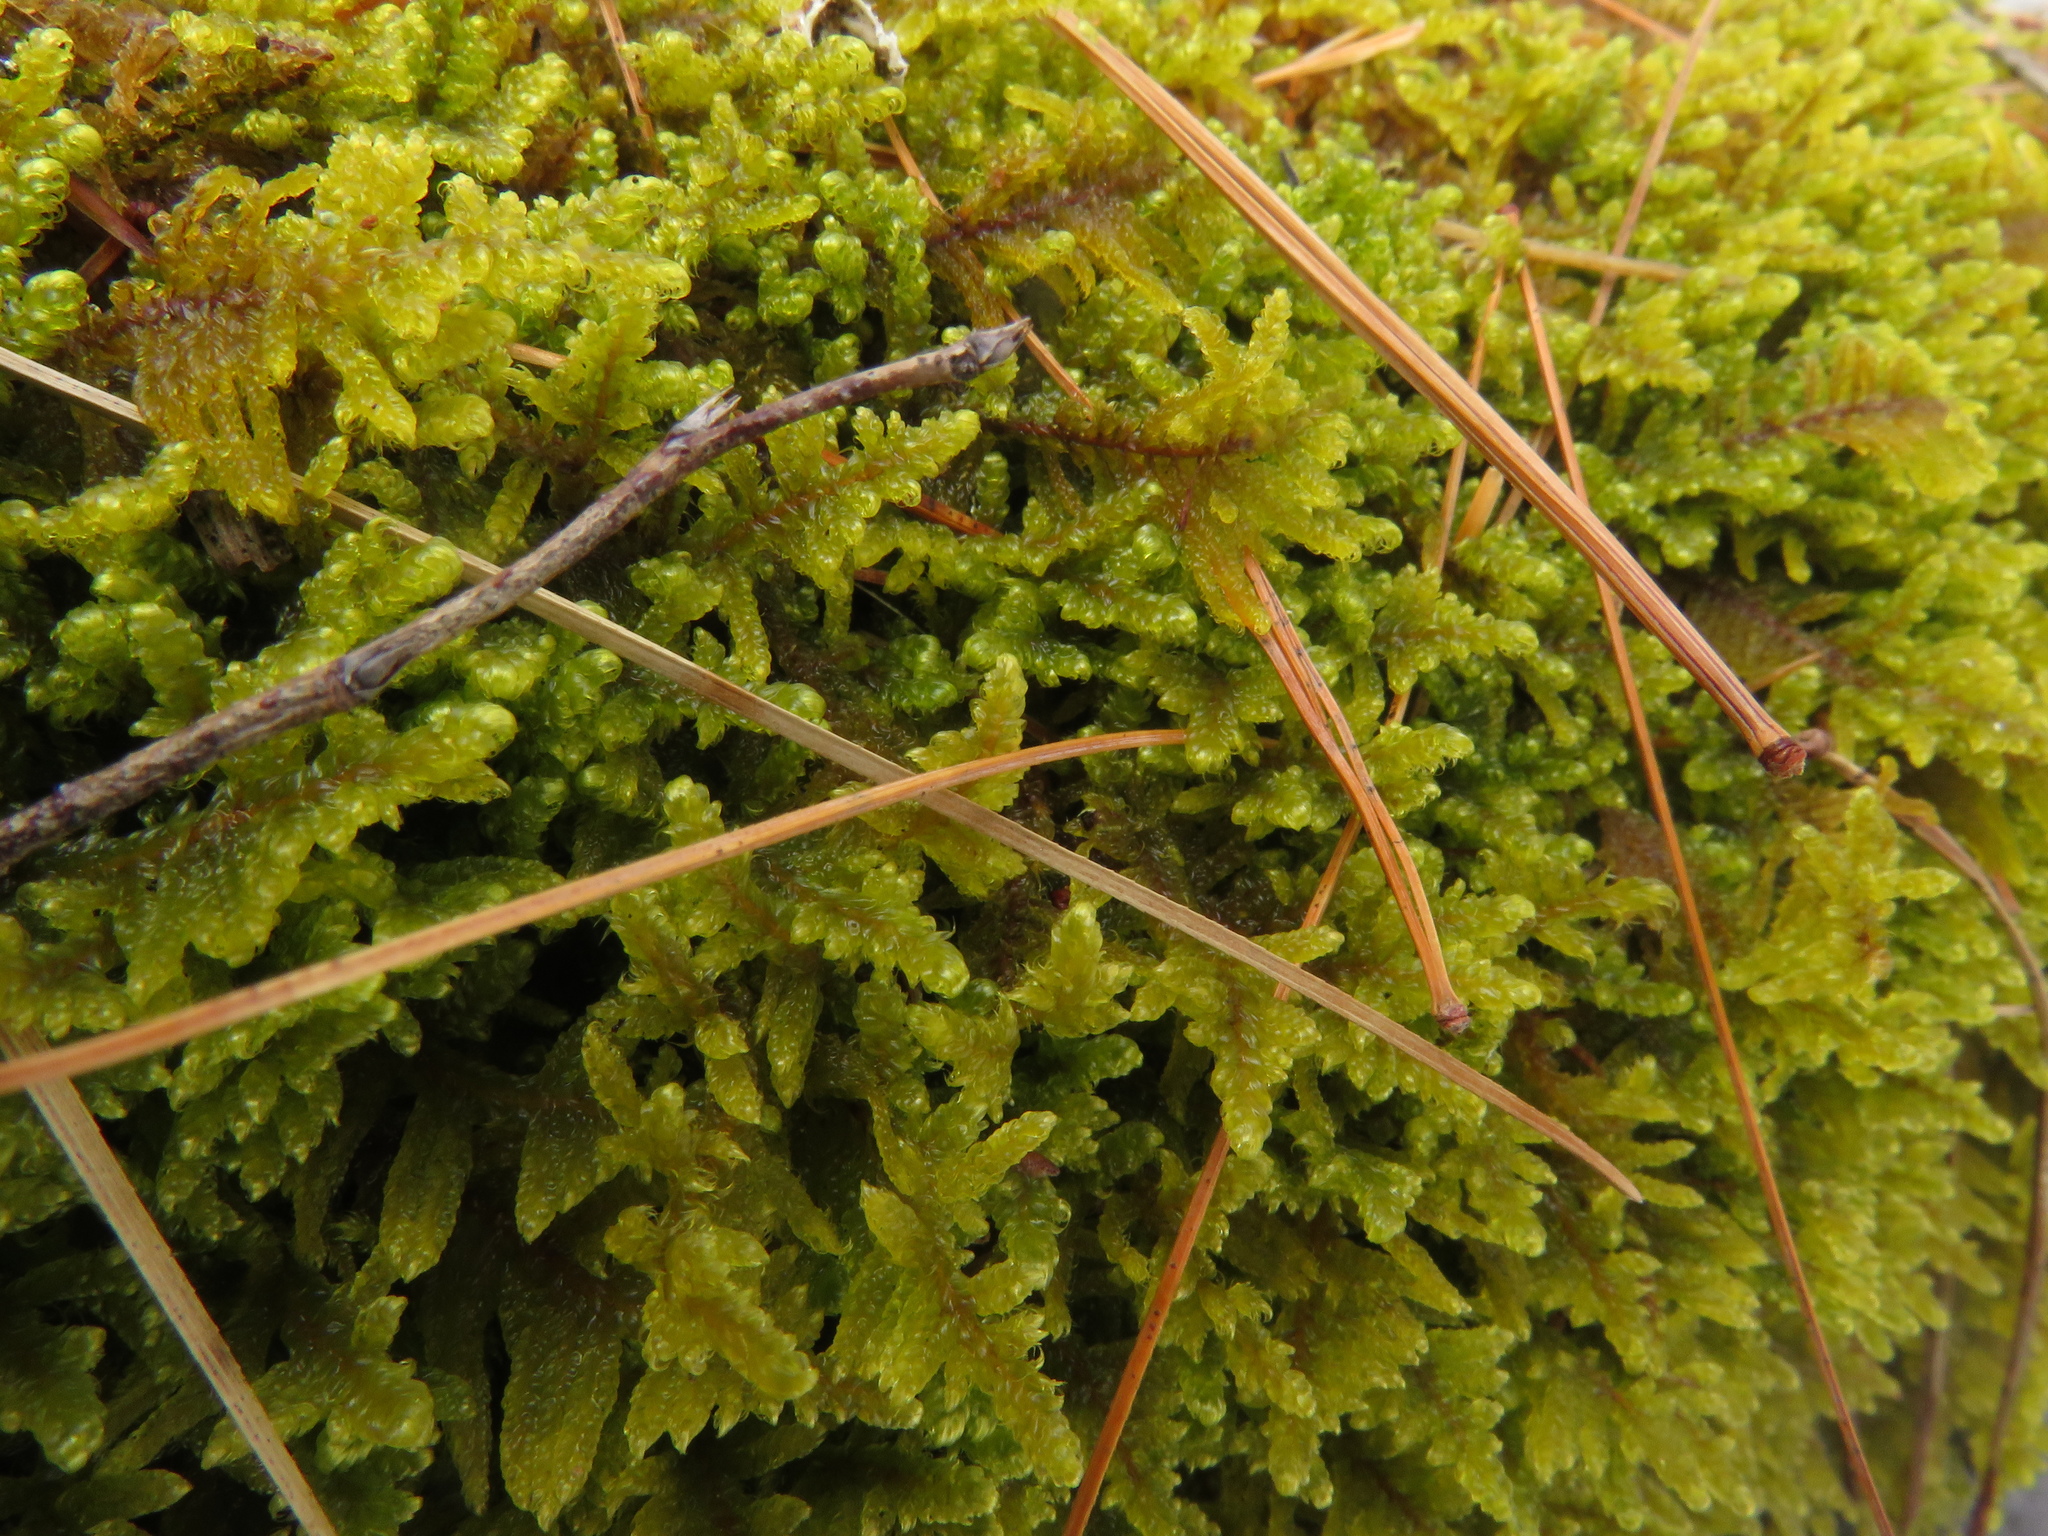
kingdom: Plantae
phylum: Bryophyta
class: Bryopsida
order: Hypnales
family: Callicladiaceae
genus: Callicladium
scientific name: Callicladium imponens
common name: Brocade moss
